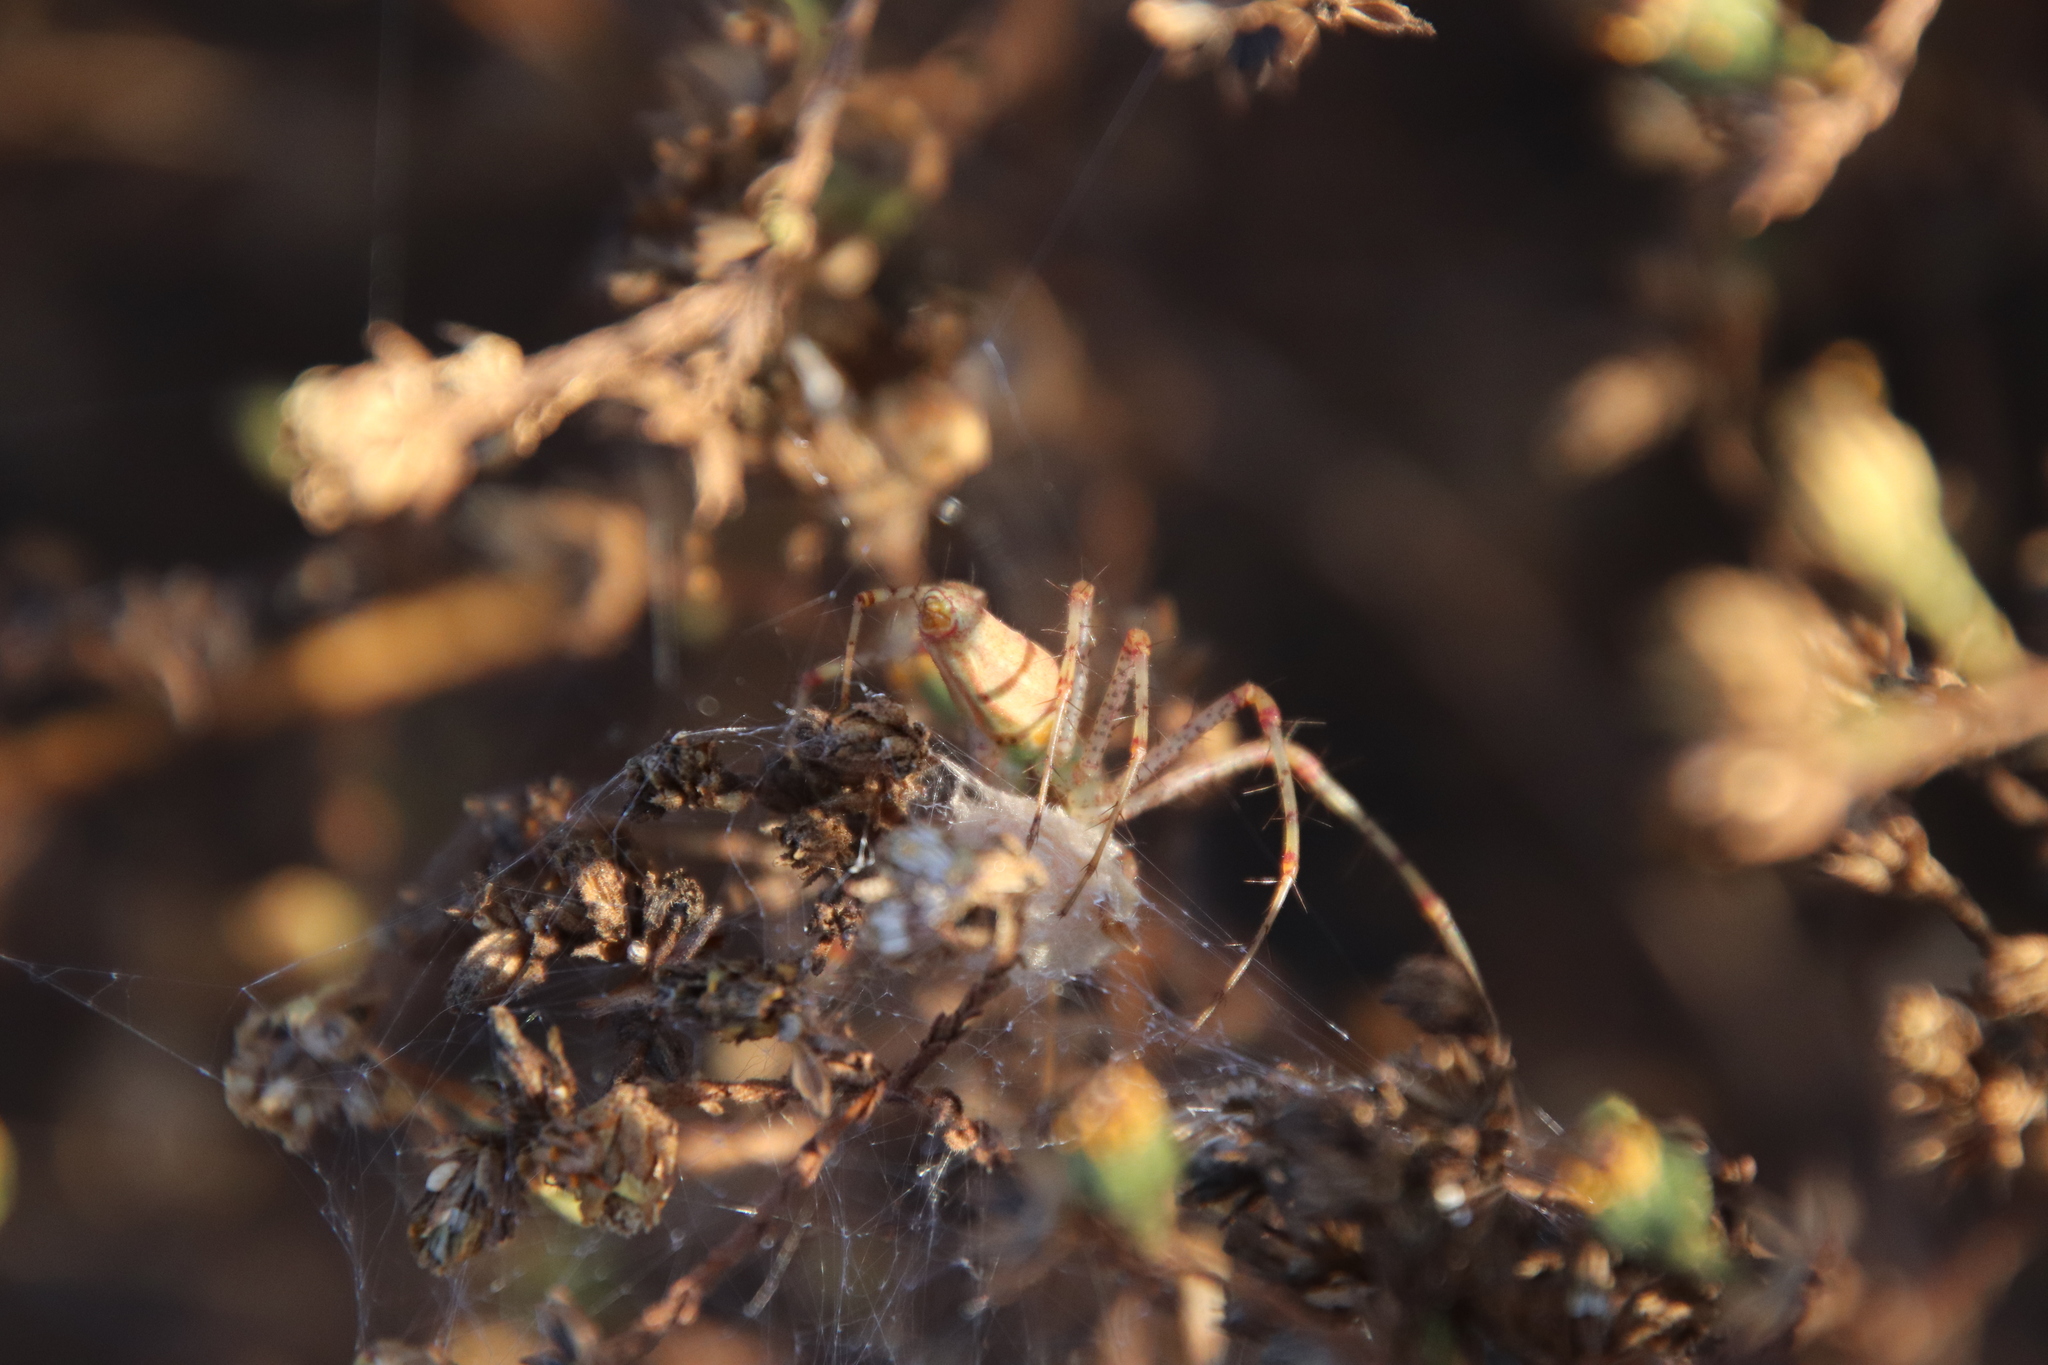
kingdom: Animalia
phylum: Arthropoda
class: Arachnida
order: Araneae
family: Oxyopidae
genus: Peucetia
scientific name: Peucetia viridans
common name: Lynx spiders
